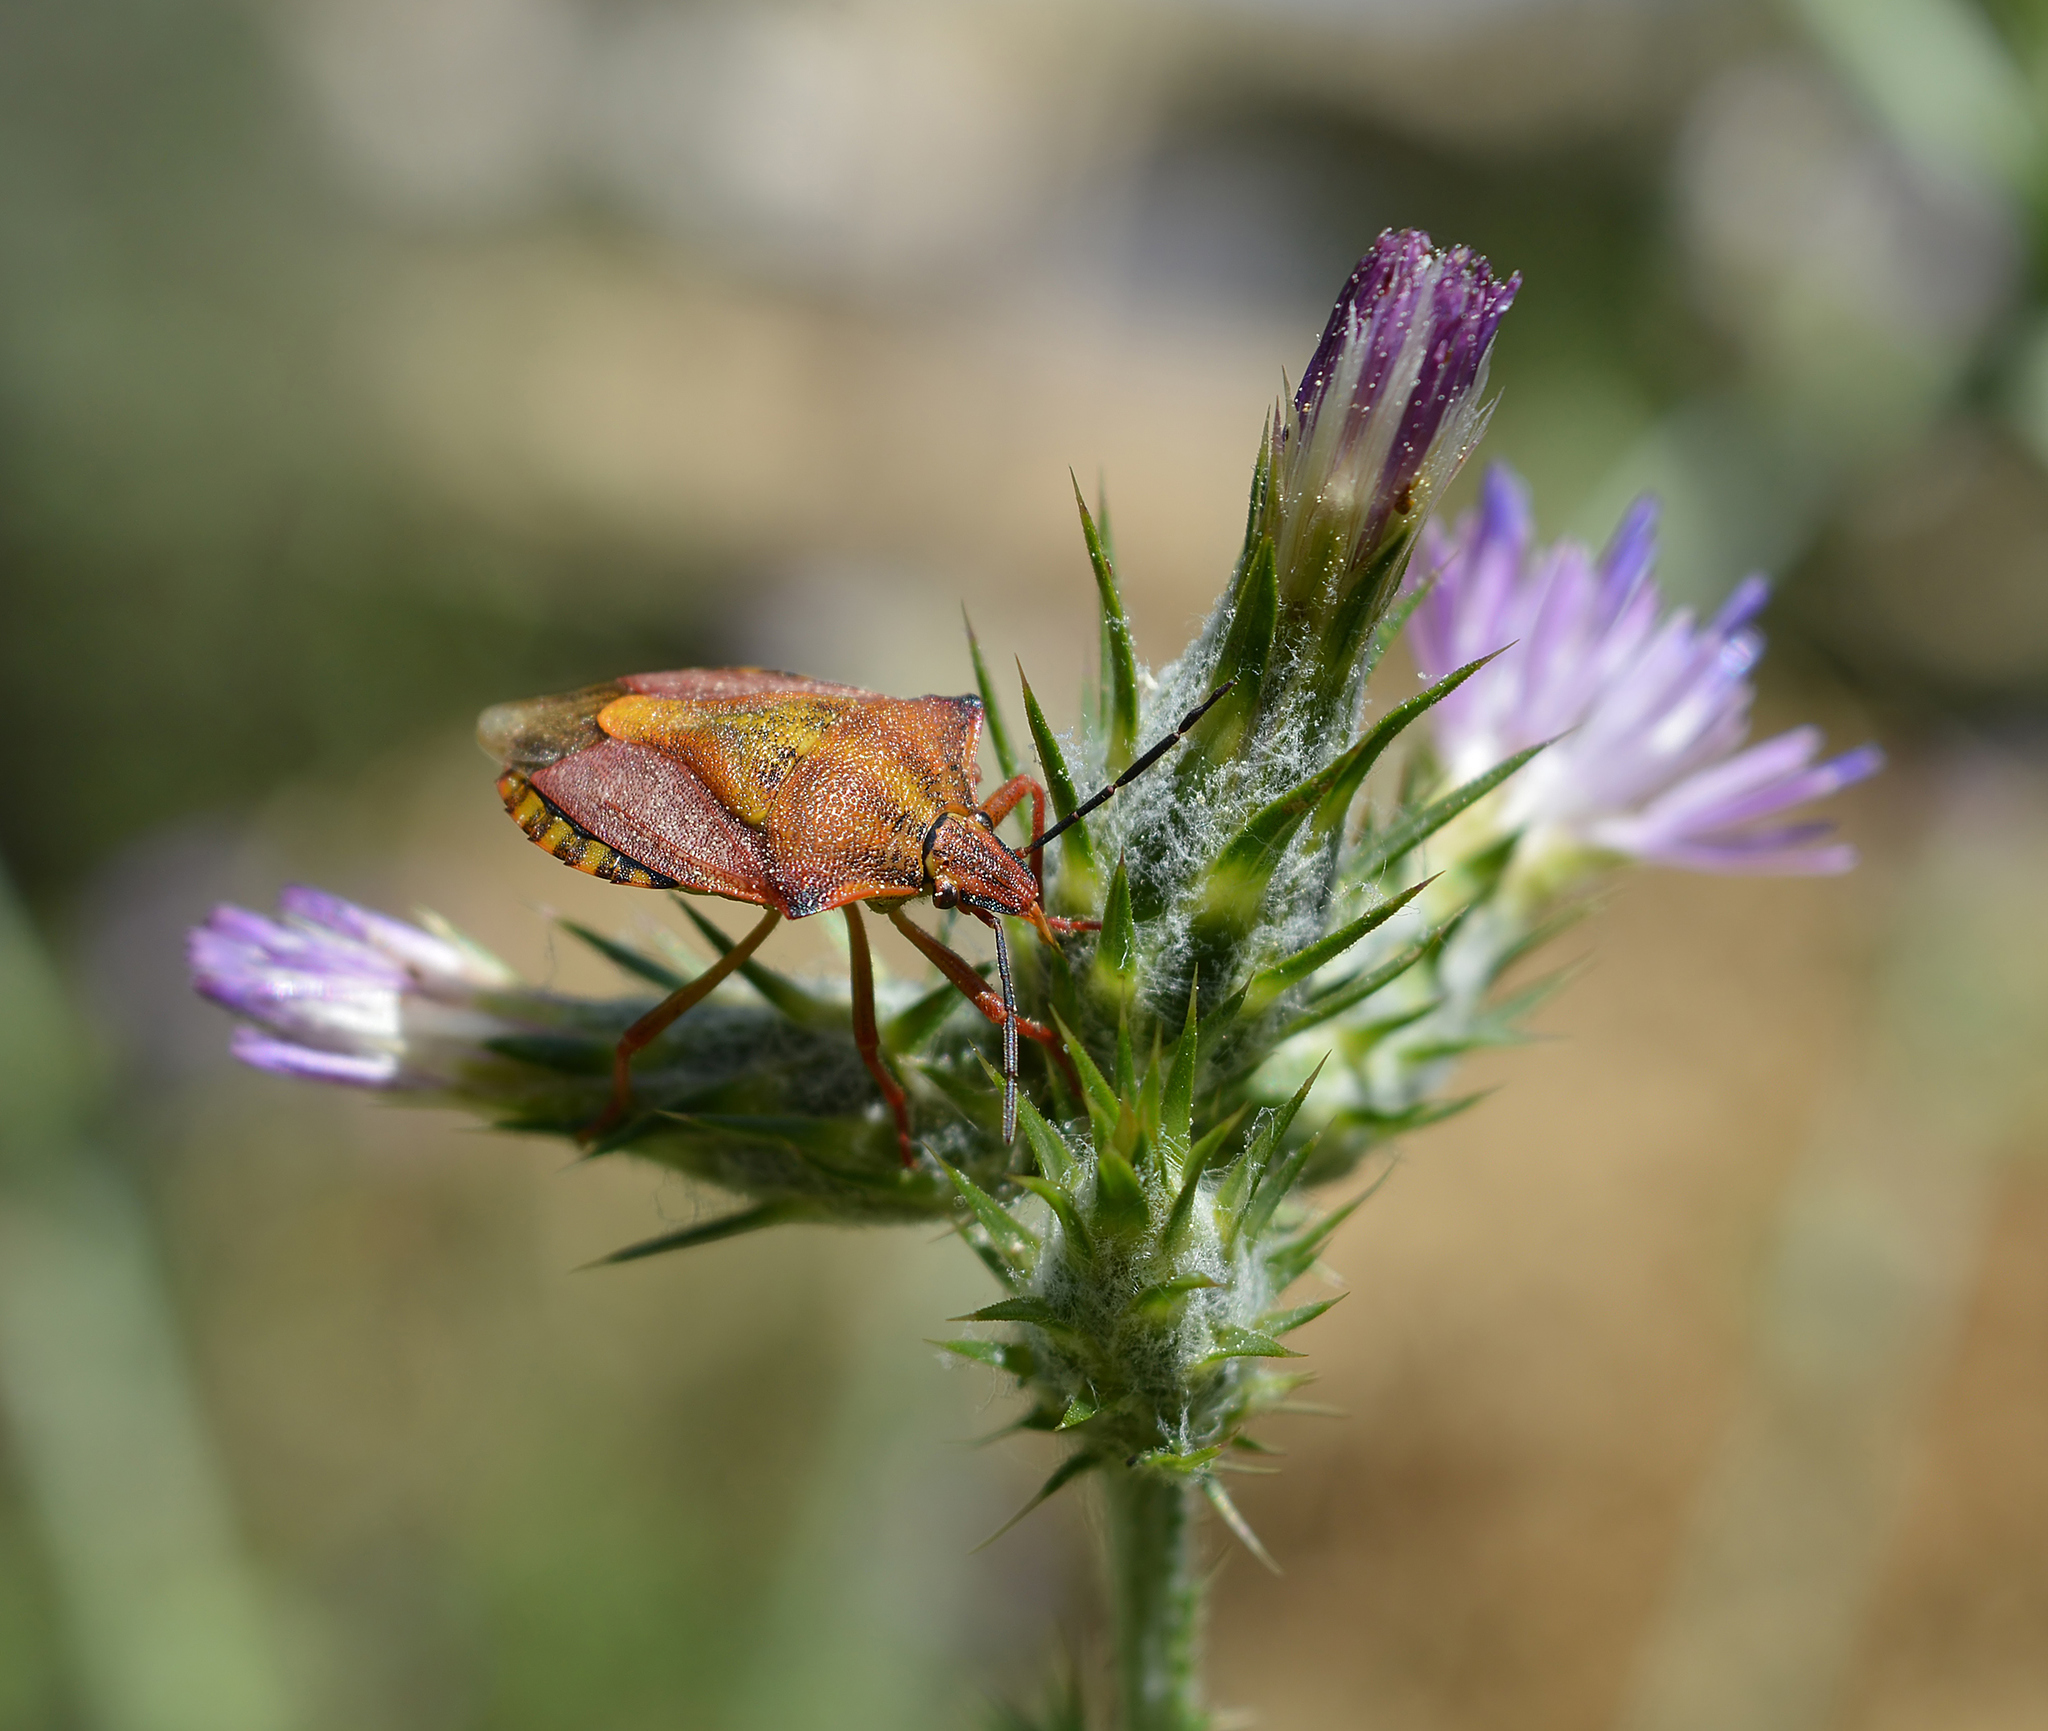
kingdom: Animalia
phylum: Arthropoda
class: Insecta
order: Hemiptera
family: Pentatomidae
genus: Carpocoris
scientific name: Carpocoris mediterraneus
